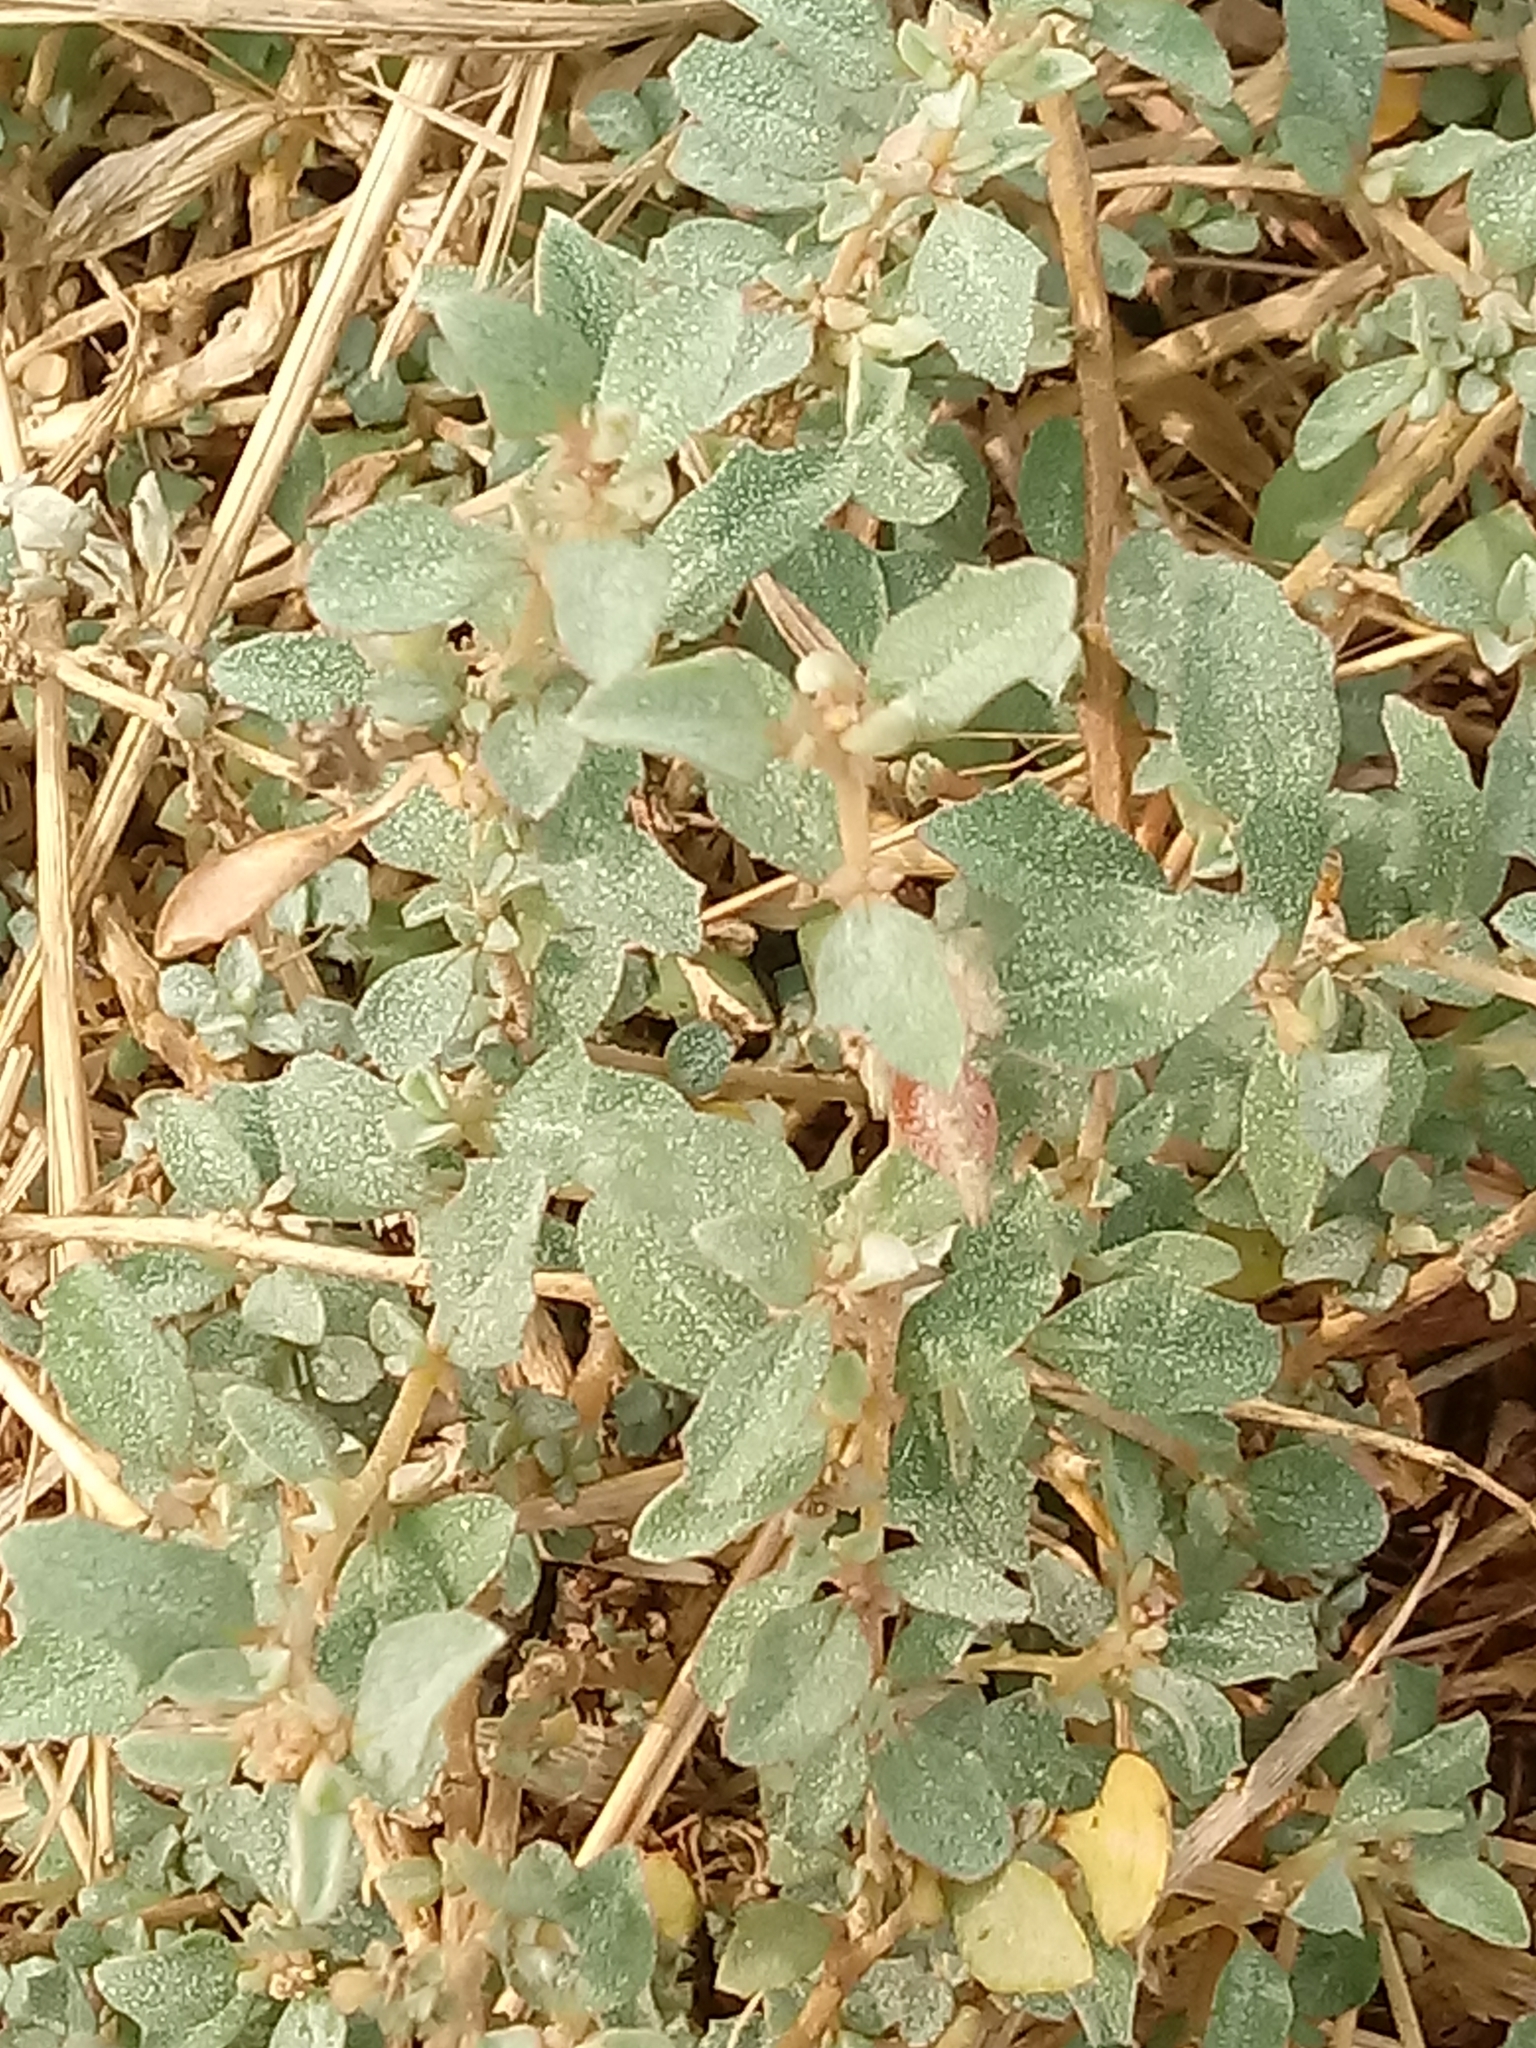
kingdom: Plantae
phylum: Tracheophyta
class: Magnoliopsida
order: Caryophyllales
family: Amaranthaceae
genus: Atriplex
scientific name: Atriplex semibaccata
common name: Australian saltbush
